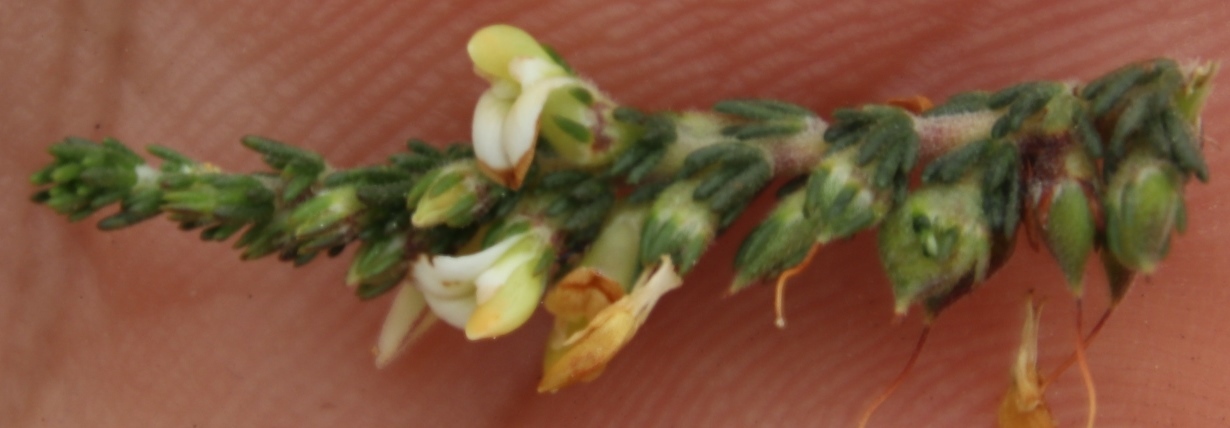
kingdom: Plantae
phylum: Tracheophyta
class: Magnoliopsida
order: Fabales
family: Fabaceae
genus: Aspalathus
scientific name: Aspalathus hispida
